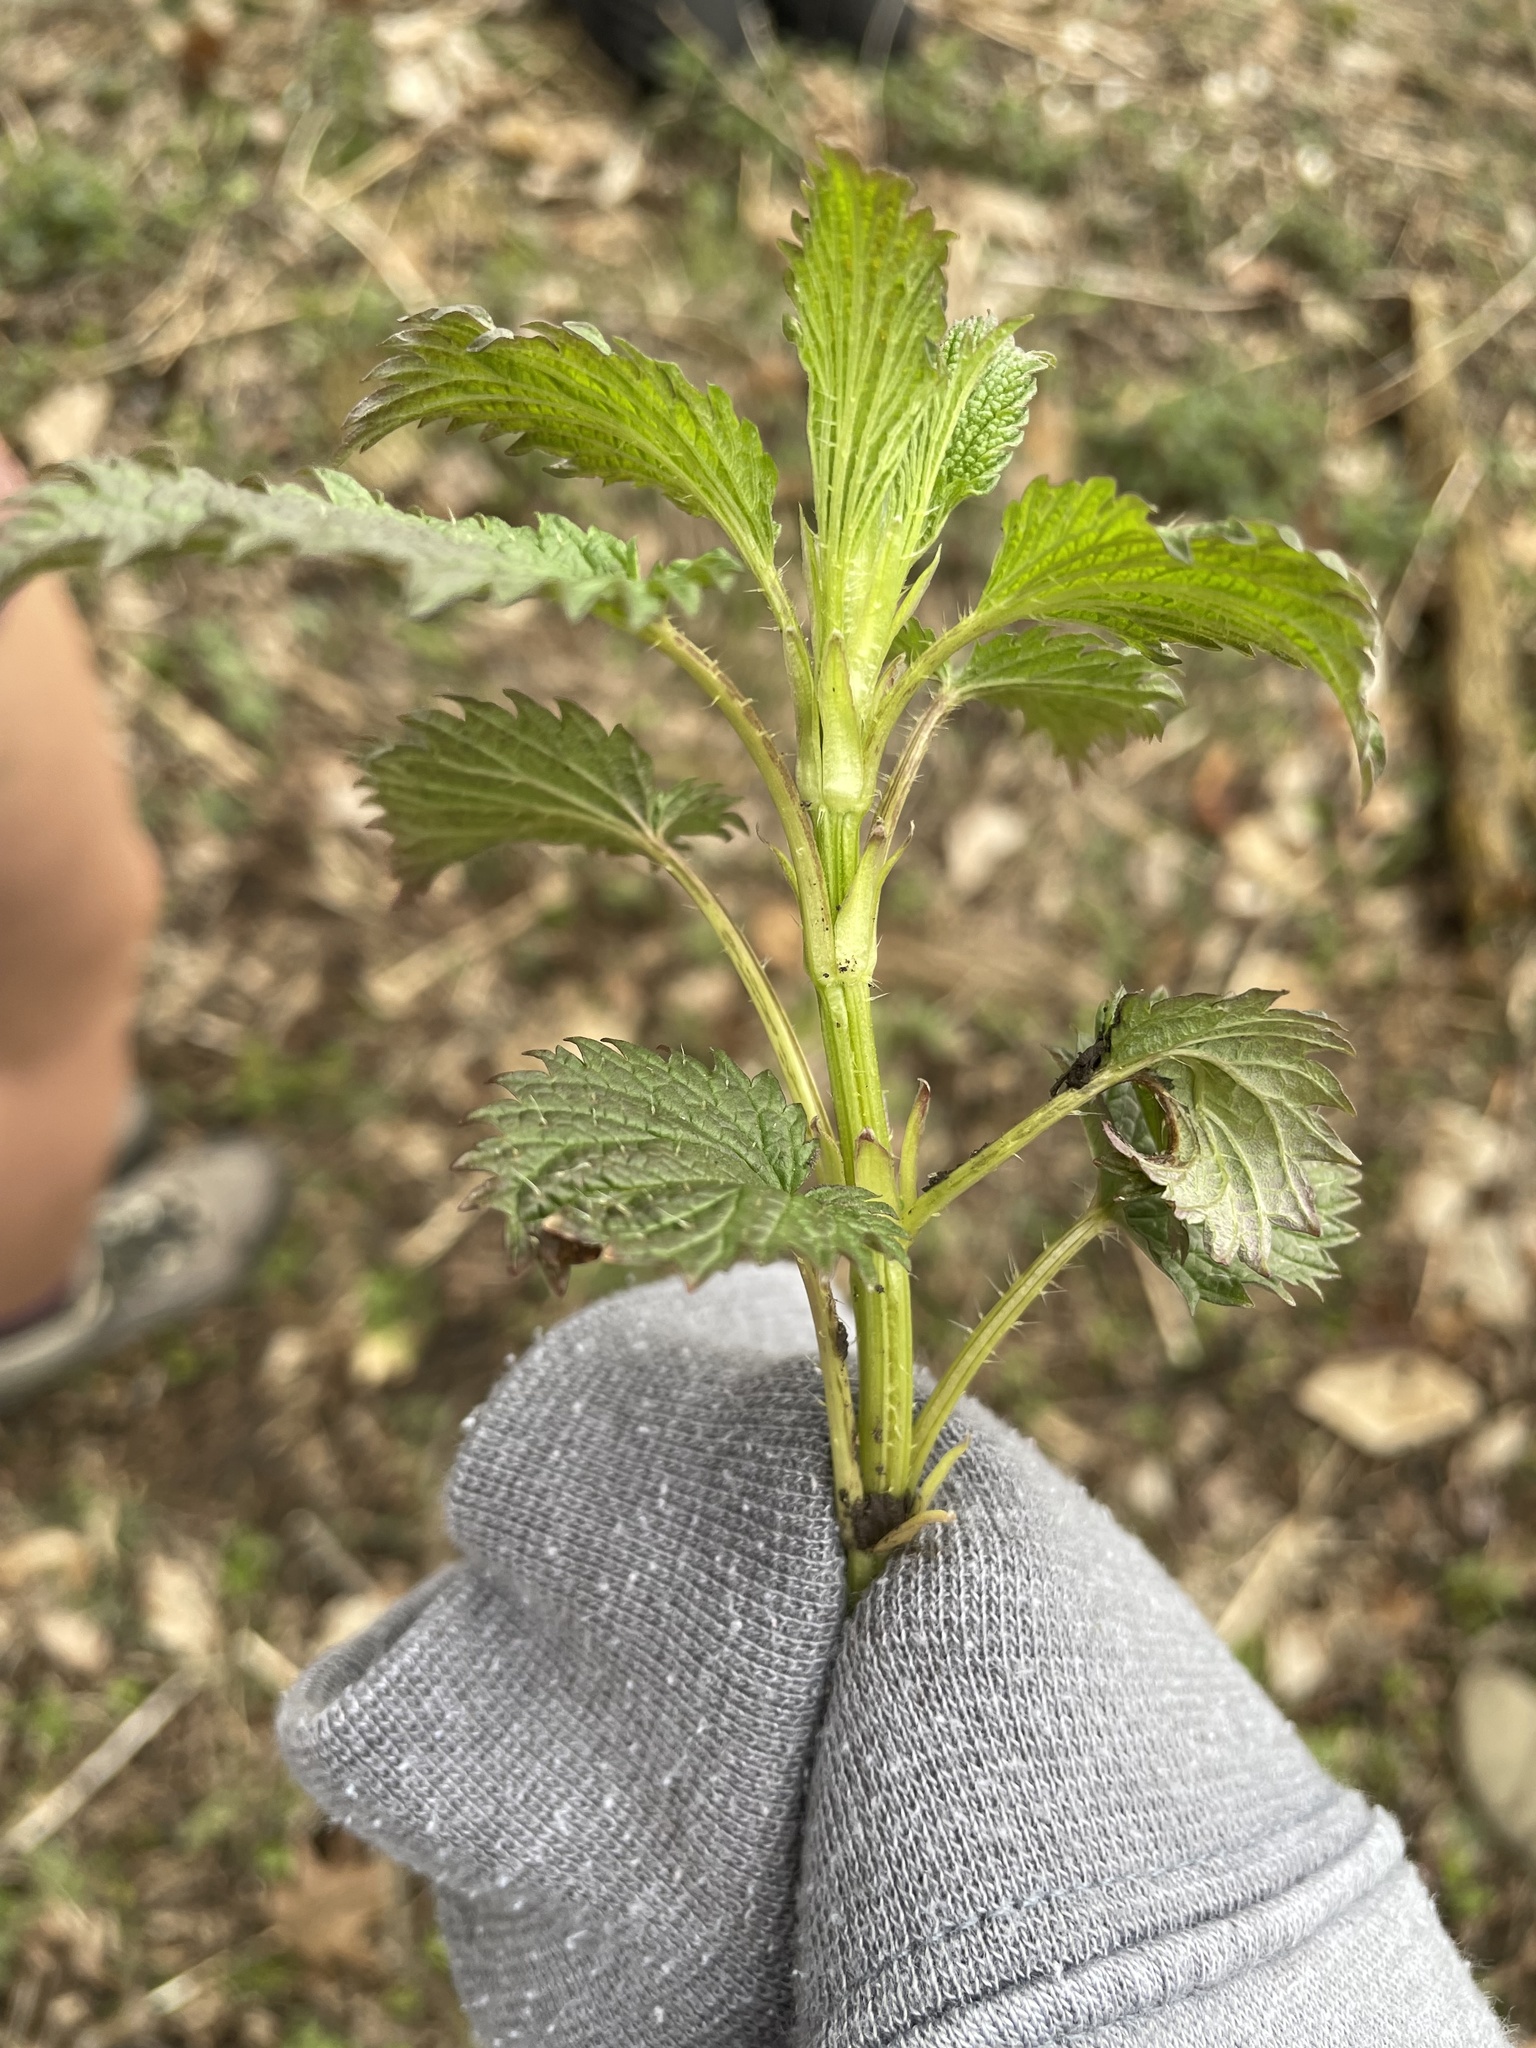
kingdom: Plantae
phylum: Tracheophyta
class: Magnoliopsida
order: Rosales
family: Urticaceae
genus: Urtica
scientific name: Urtica dioica
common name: Common nettle
